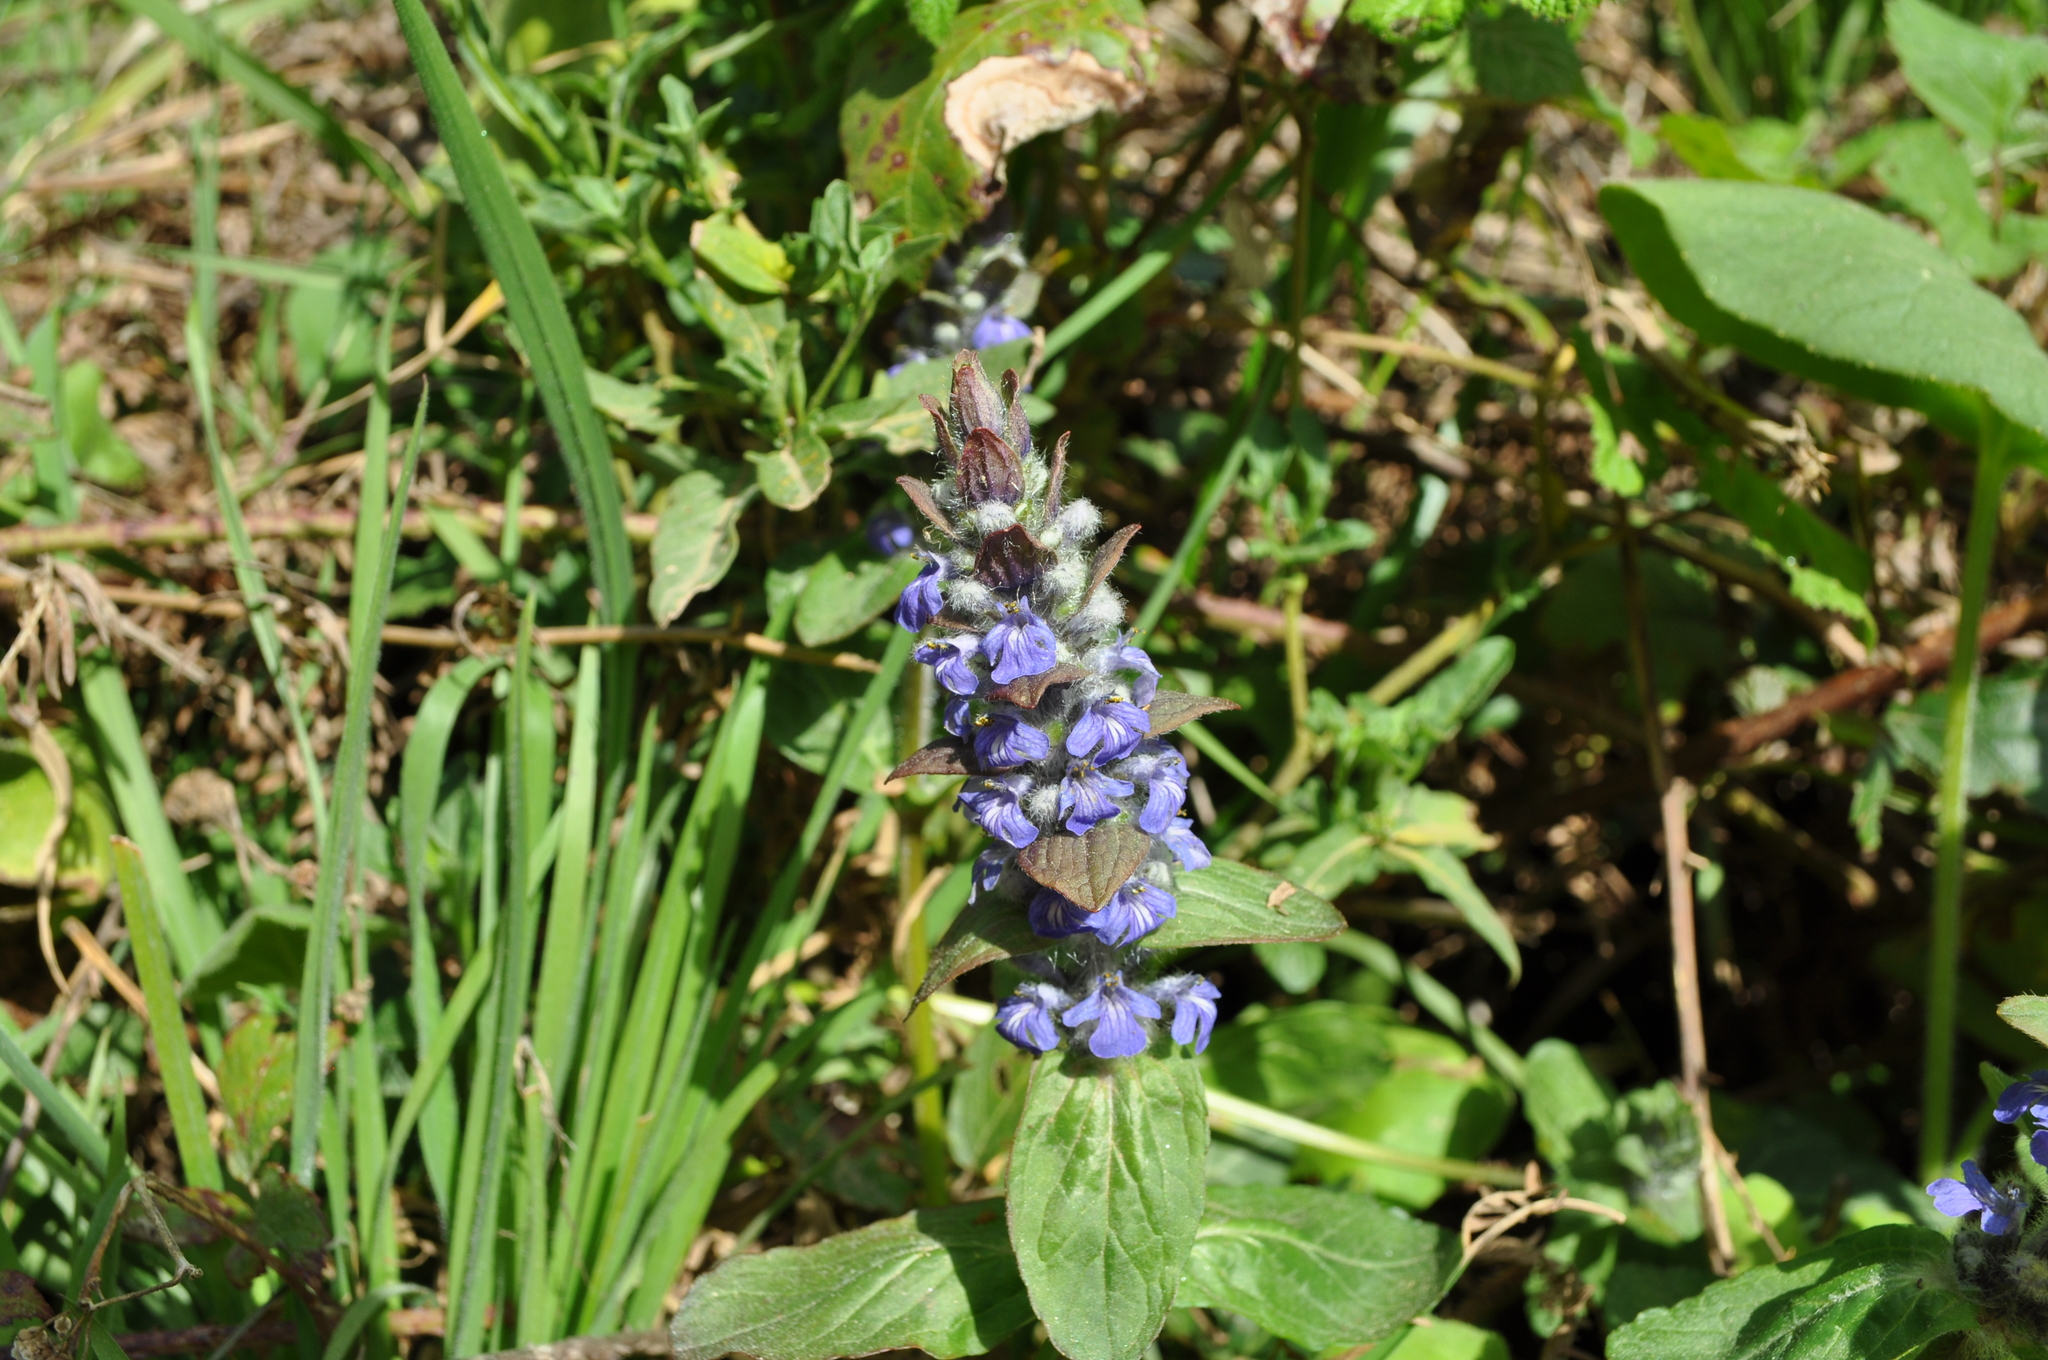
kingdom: Plantae
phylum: Tracheophyta
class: Magnoliopsida
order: Lamiales
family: Lamiaceae
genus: Ajuga
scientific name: Ajuga reptans
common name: Bugle
